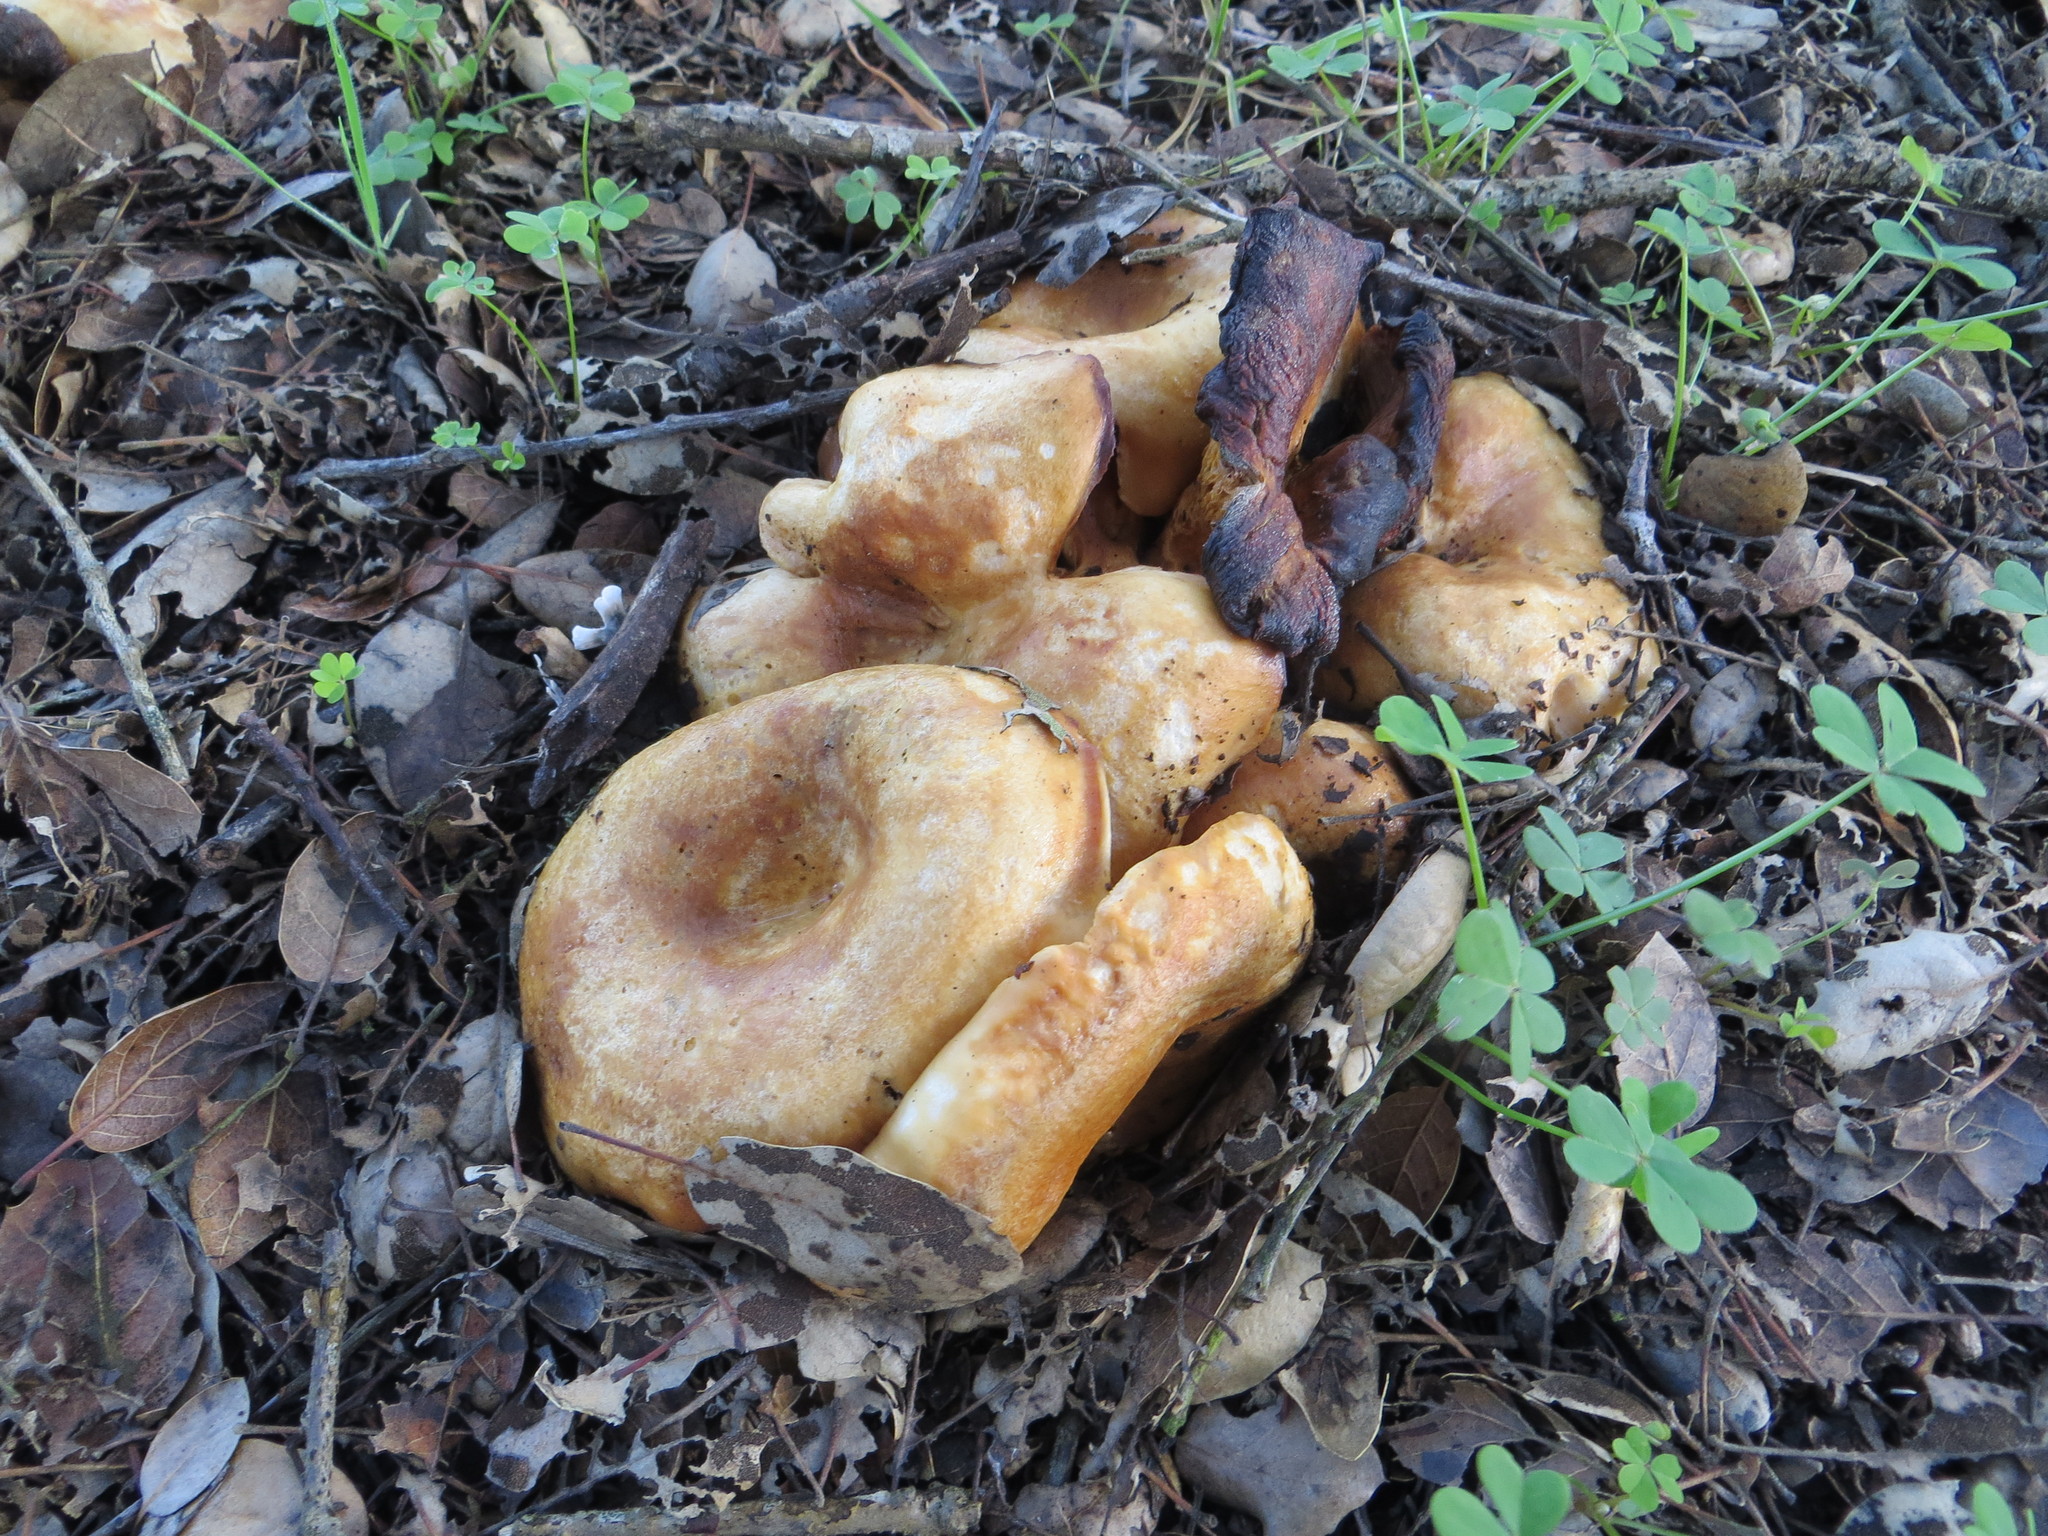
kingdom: Fungi
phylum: Basidiomycota
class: Agaricomycetes
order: Russulales
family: Russulaceae
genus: Lactarius
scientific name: Lactarius alnicola
